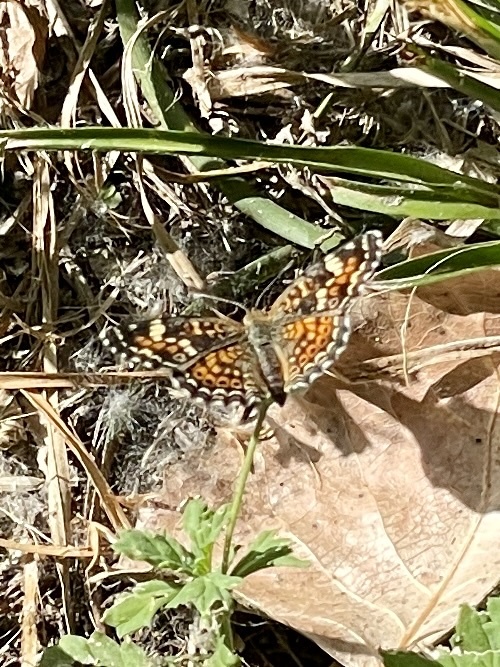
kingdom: Animalia
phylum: Arthropoda
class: Insecta
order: Lepidoptera
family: Nymphalidae
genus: Phyciodes
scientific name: Phyciodes phaon
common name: Phaon crescent
